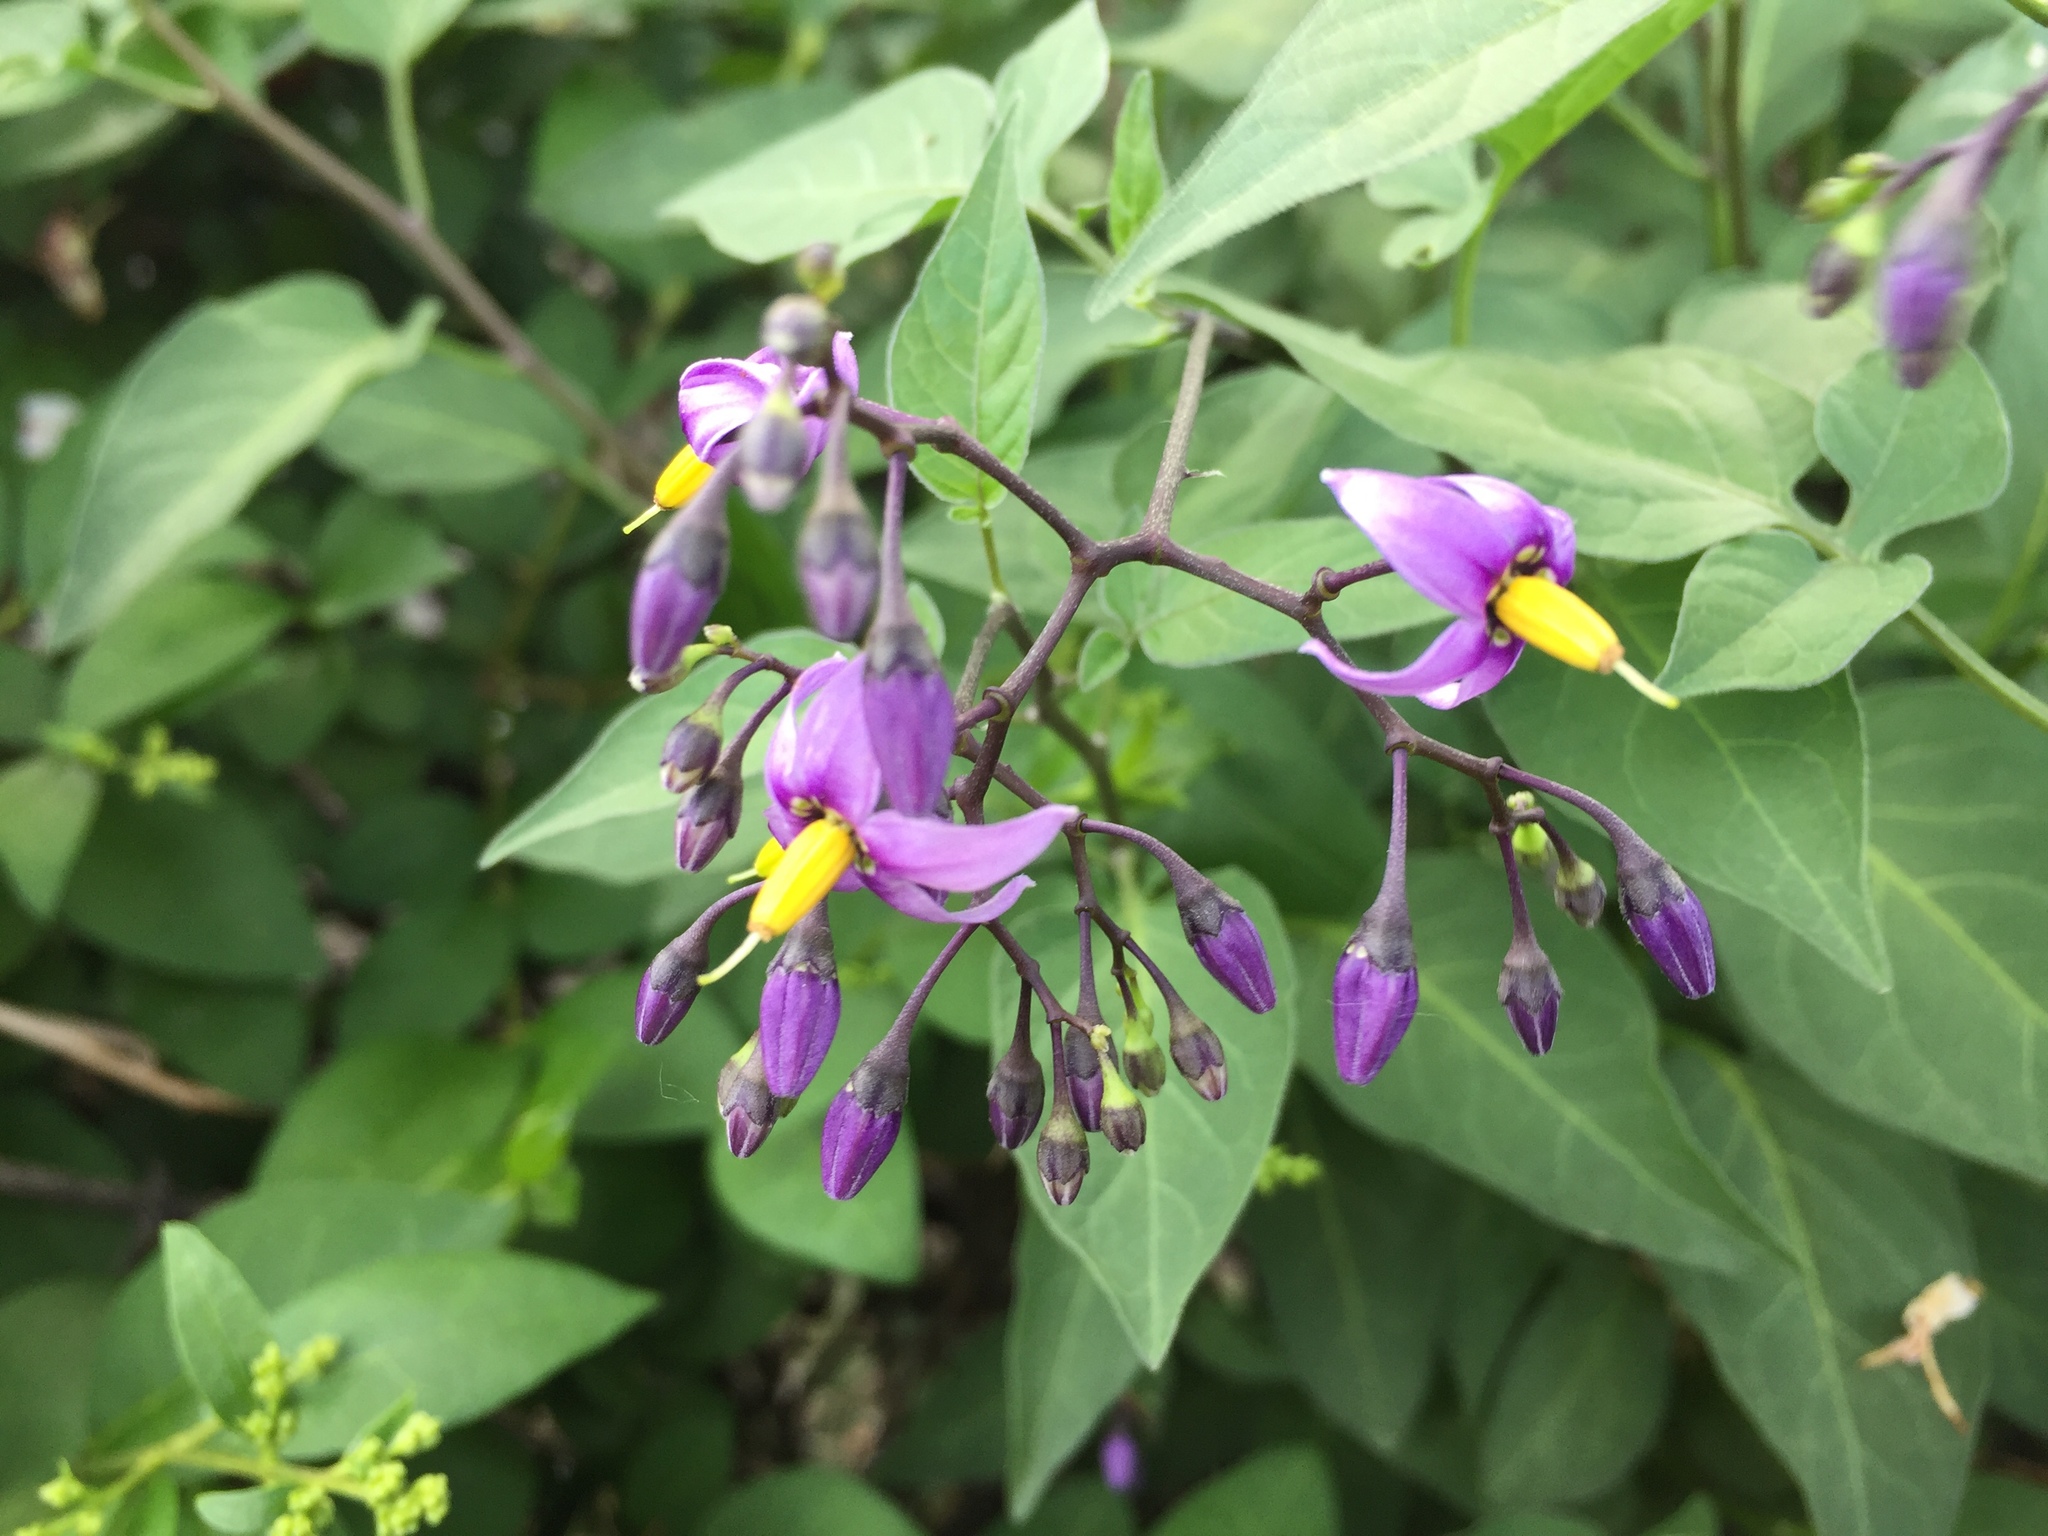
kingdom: Plantae
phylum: Tracheophyta
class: Magnoliopsida
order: Solanales
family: Solanaceae
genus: Solanum
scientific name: Solanum dulcamara
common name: Climbing nightshade
